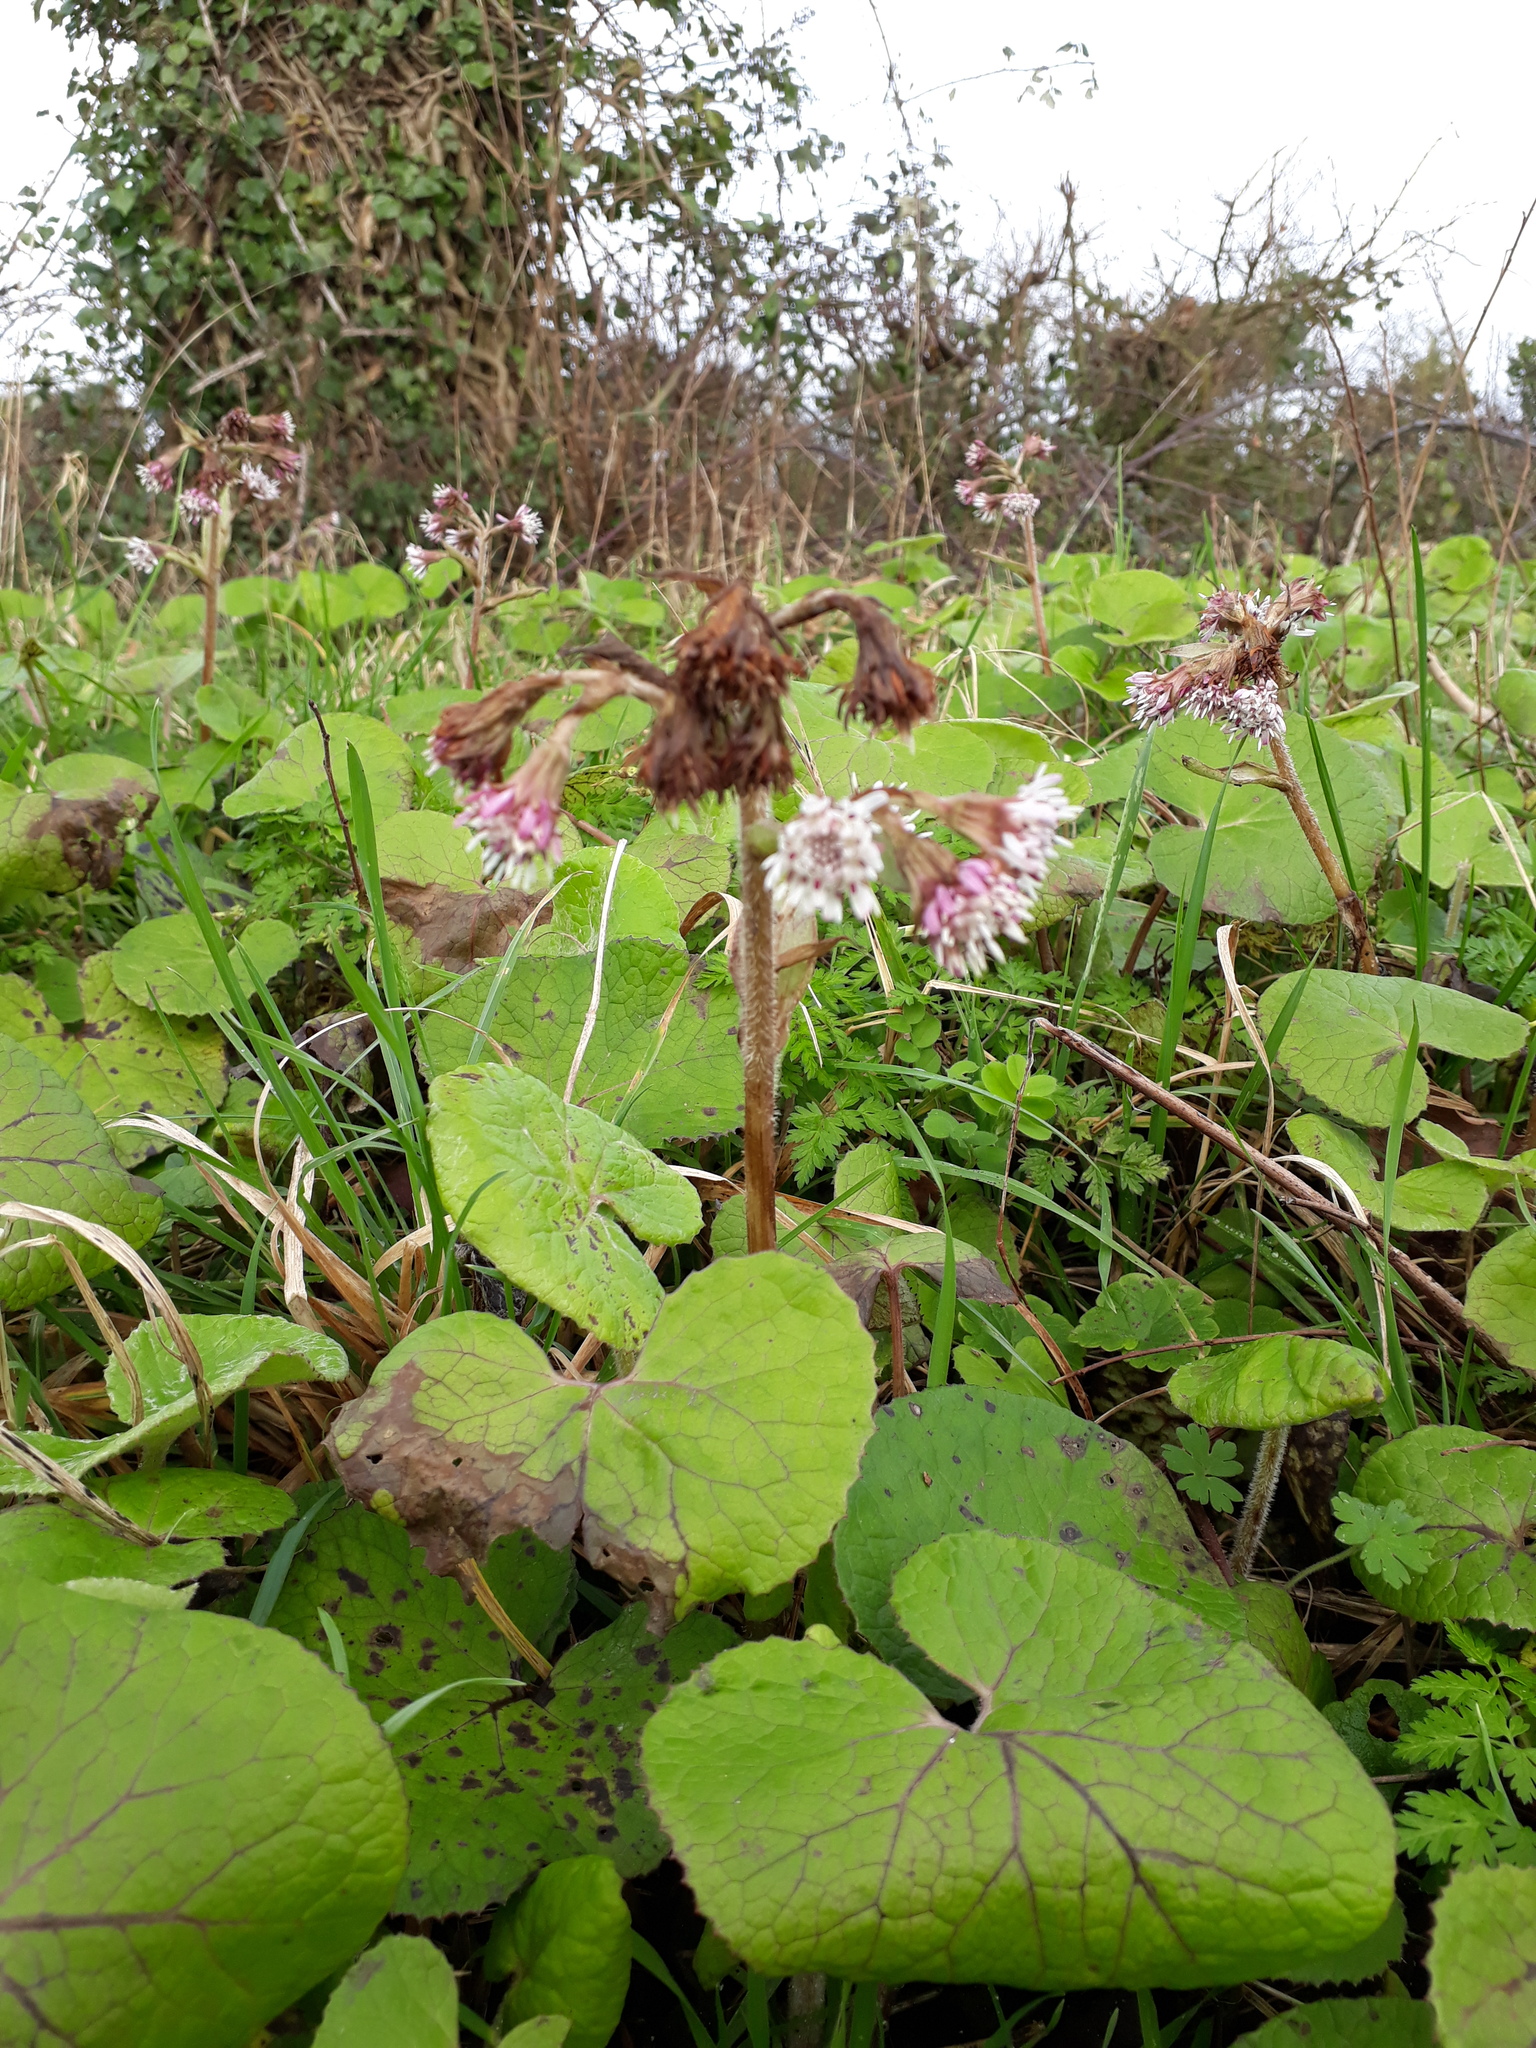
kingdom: Plantae
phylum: Tracheophyta
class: Magnoliopsida
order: Asterales
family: Asteraceae
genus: Petasites
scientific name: Petasites pyrenaicus
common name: Winter heliotrope
